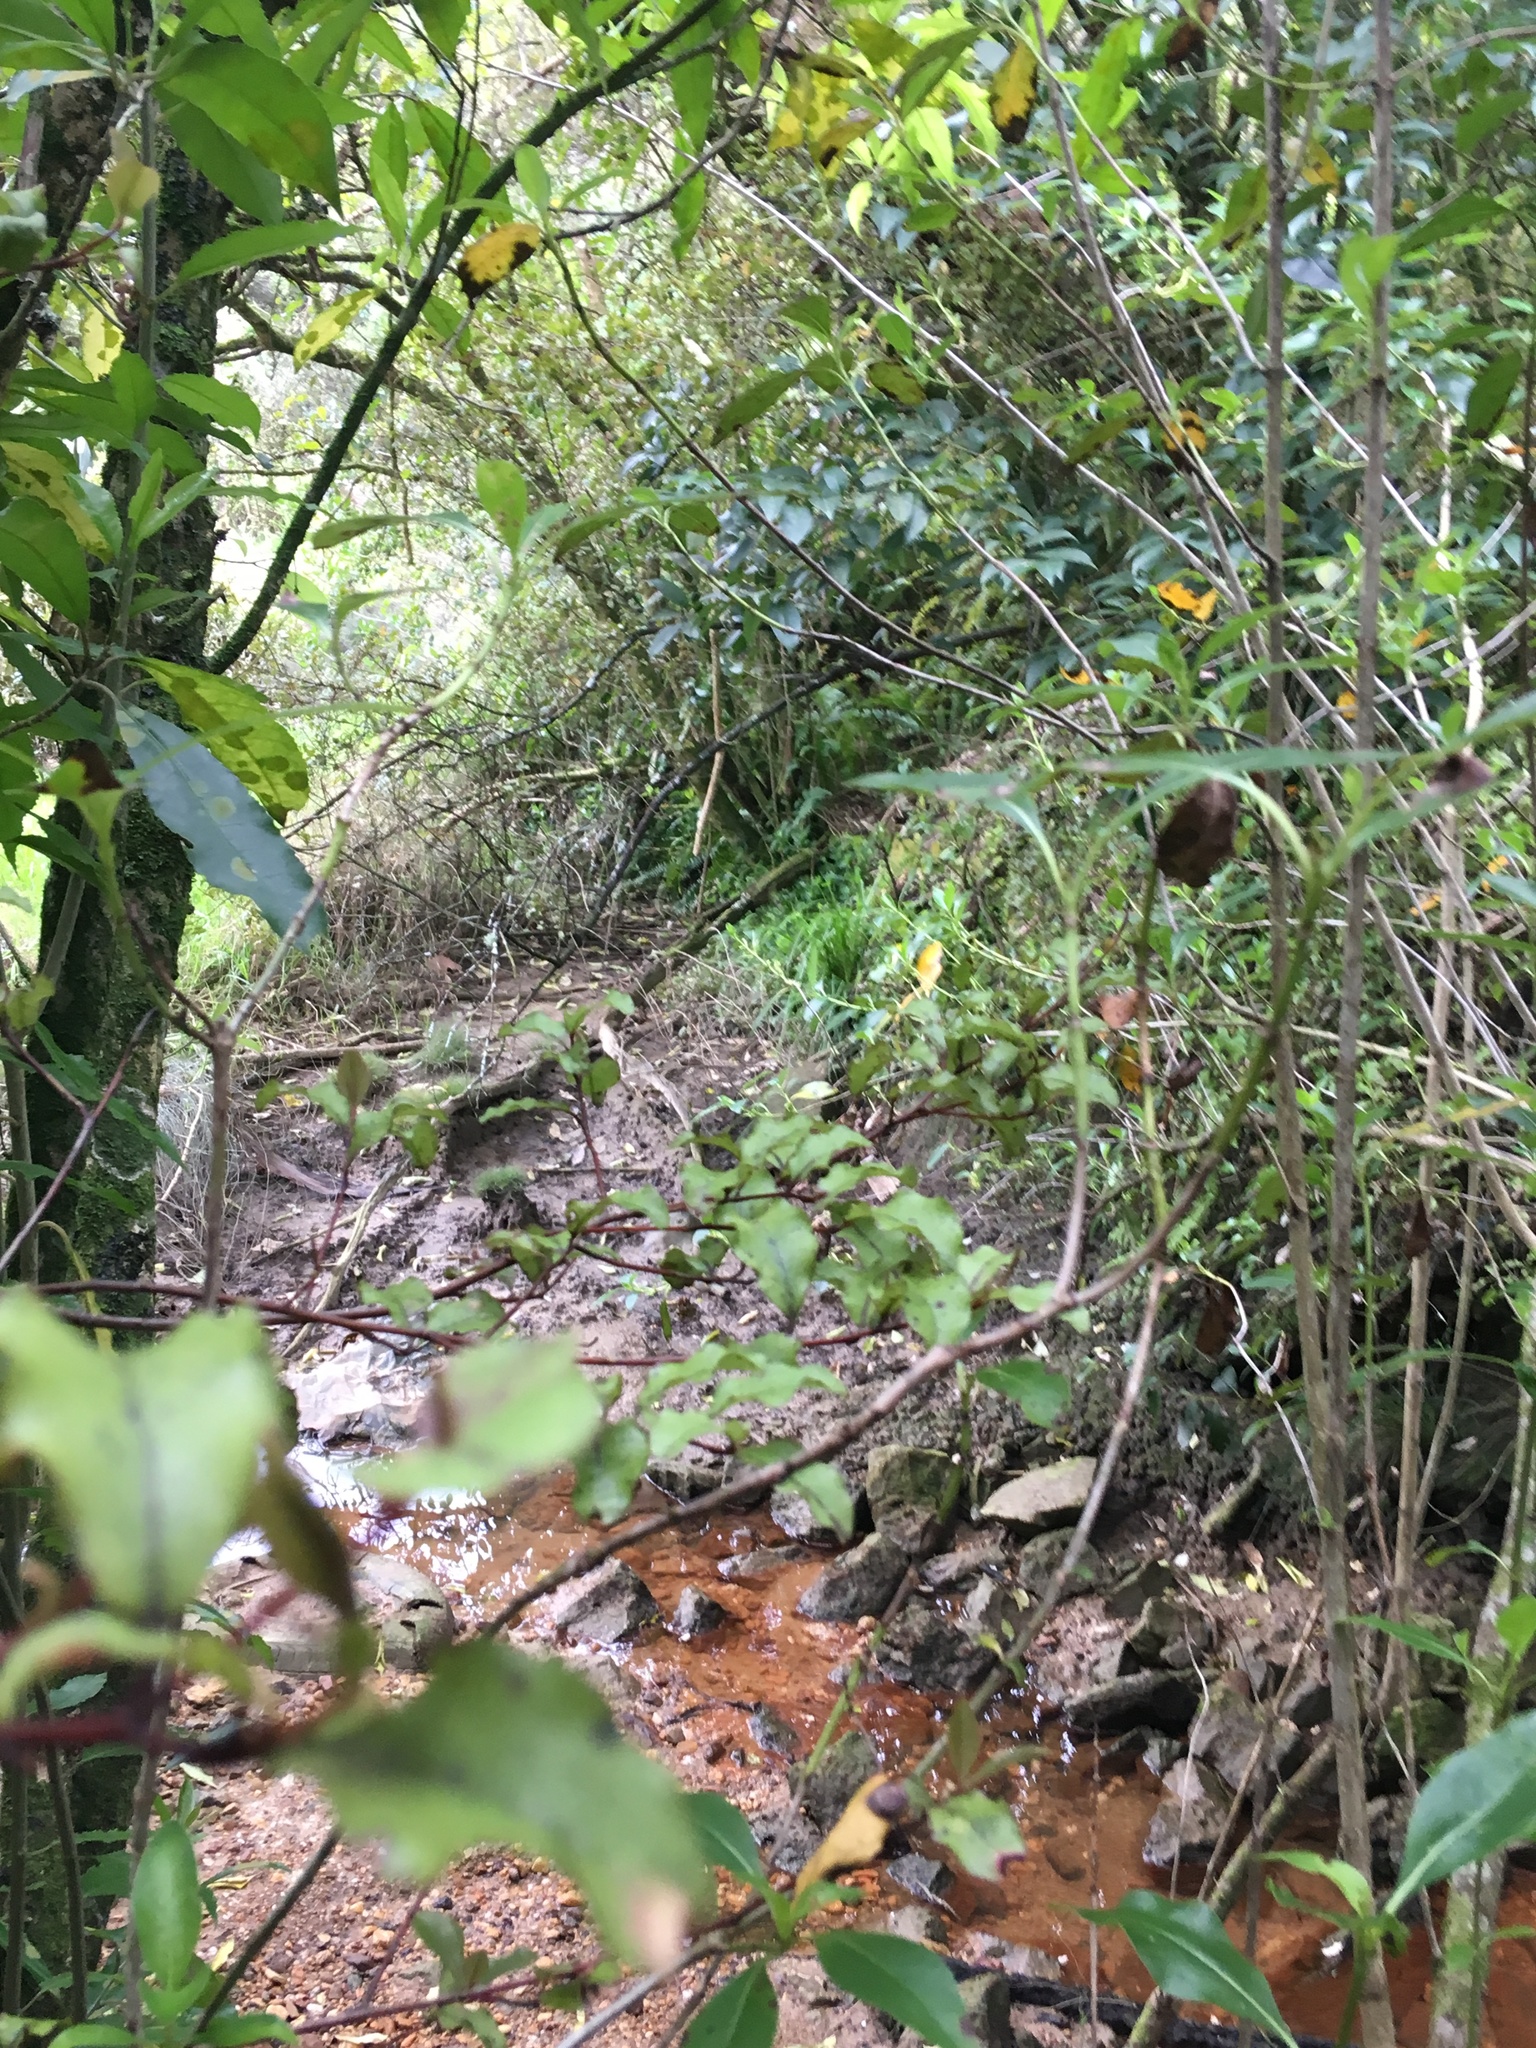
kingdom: Plantae
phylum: Tracheophyta
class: Magnoliopsida
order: Malpighiales
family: Violaceae
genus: Melicytus
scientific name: Melicytus ramiflorus
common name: Mahoe
